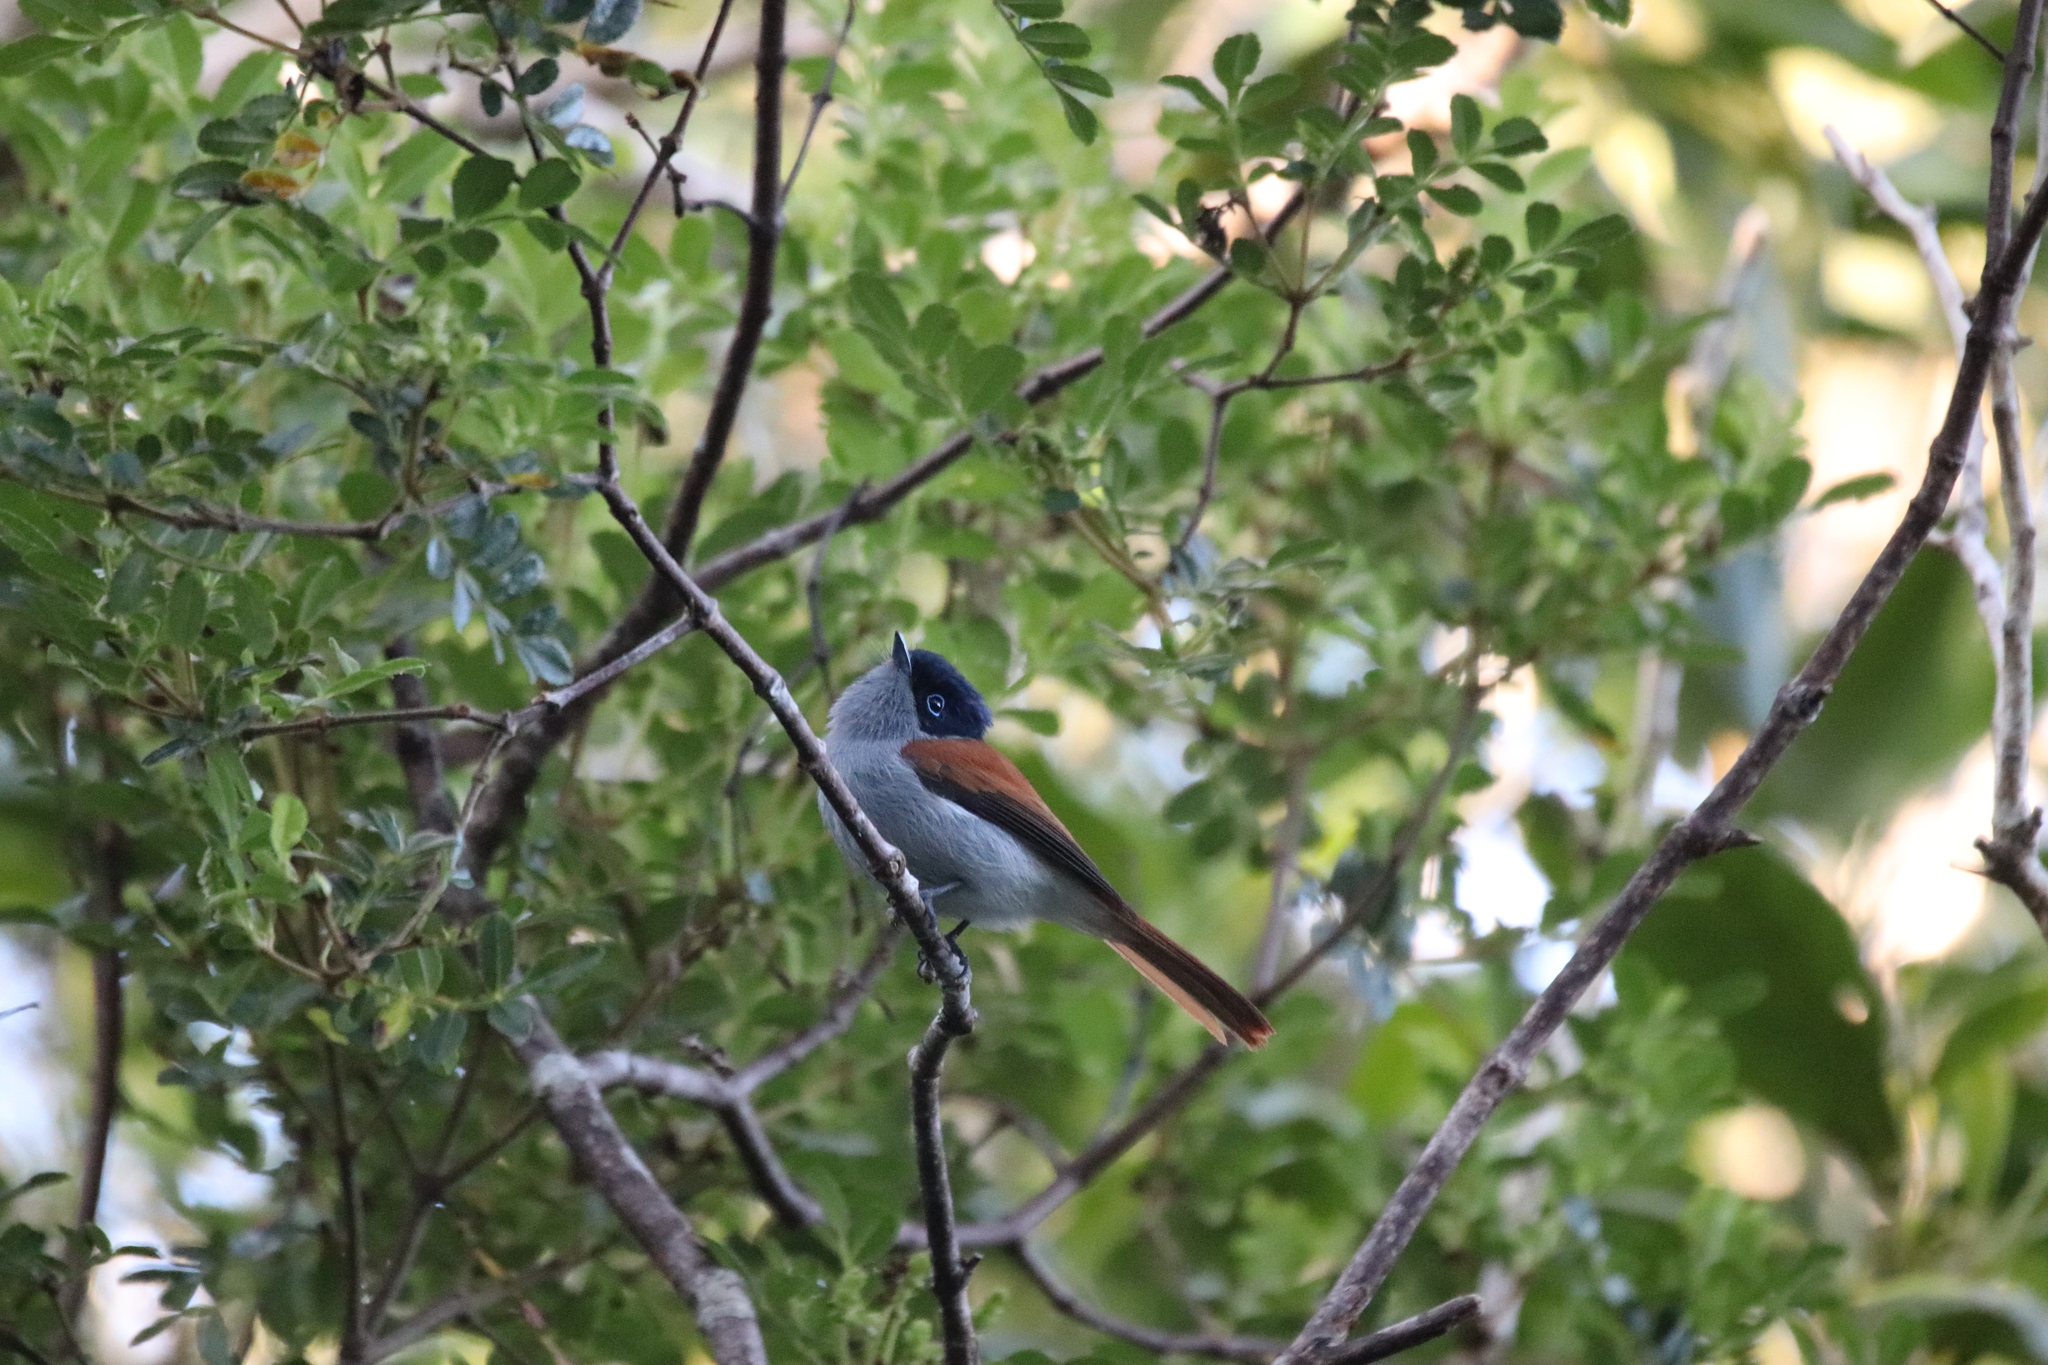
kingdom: Animalia
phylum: Chordata
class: Aves
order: Passeriformes
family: Monarchidae
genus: Terpsiphone
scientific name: Terpsiphone bourbonnensis
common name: Mascarene paradise flycatcher
